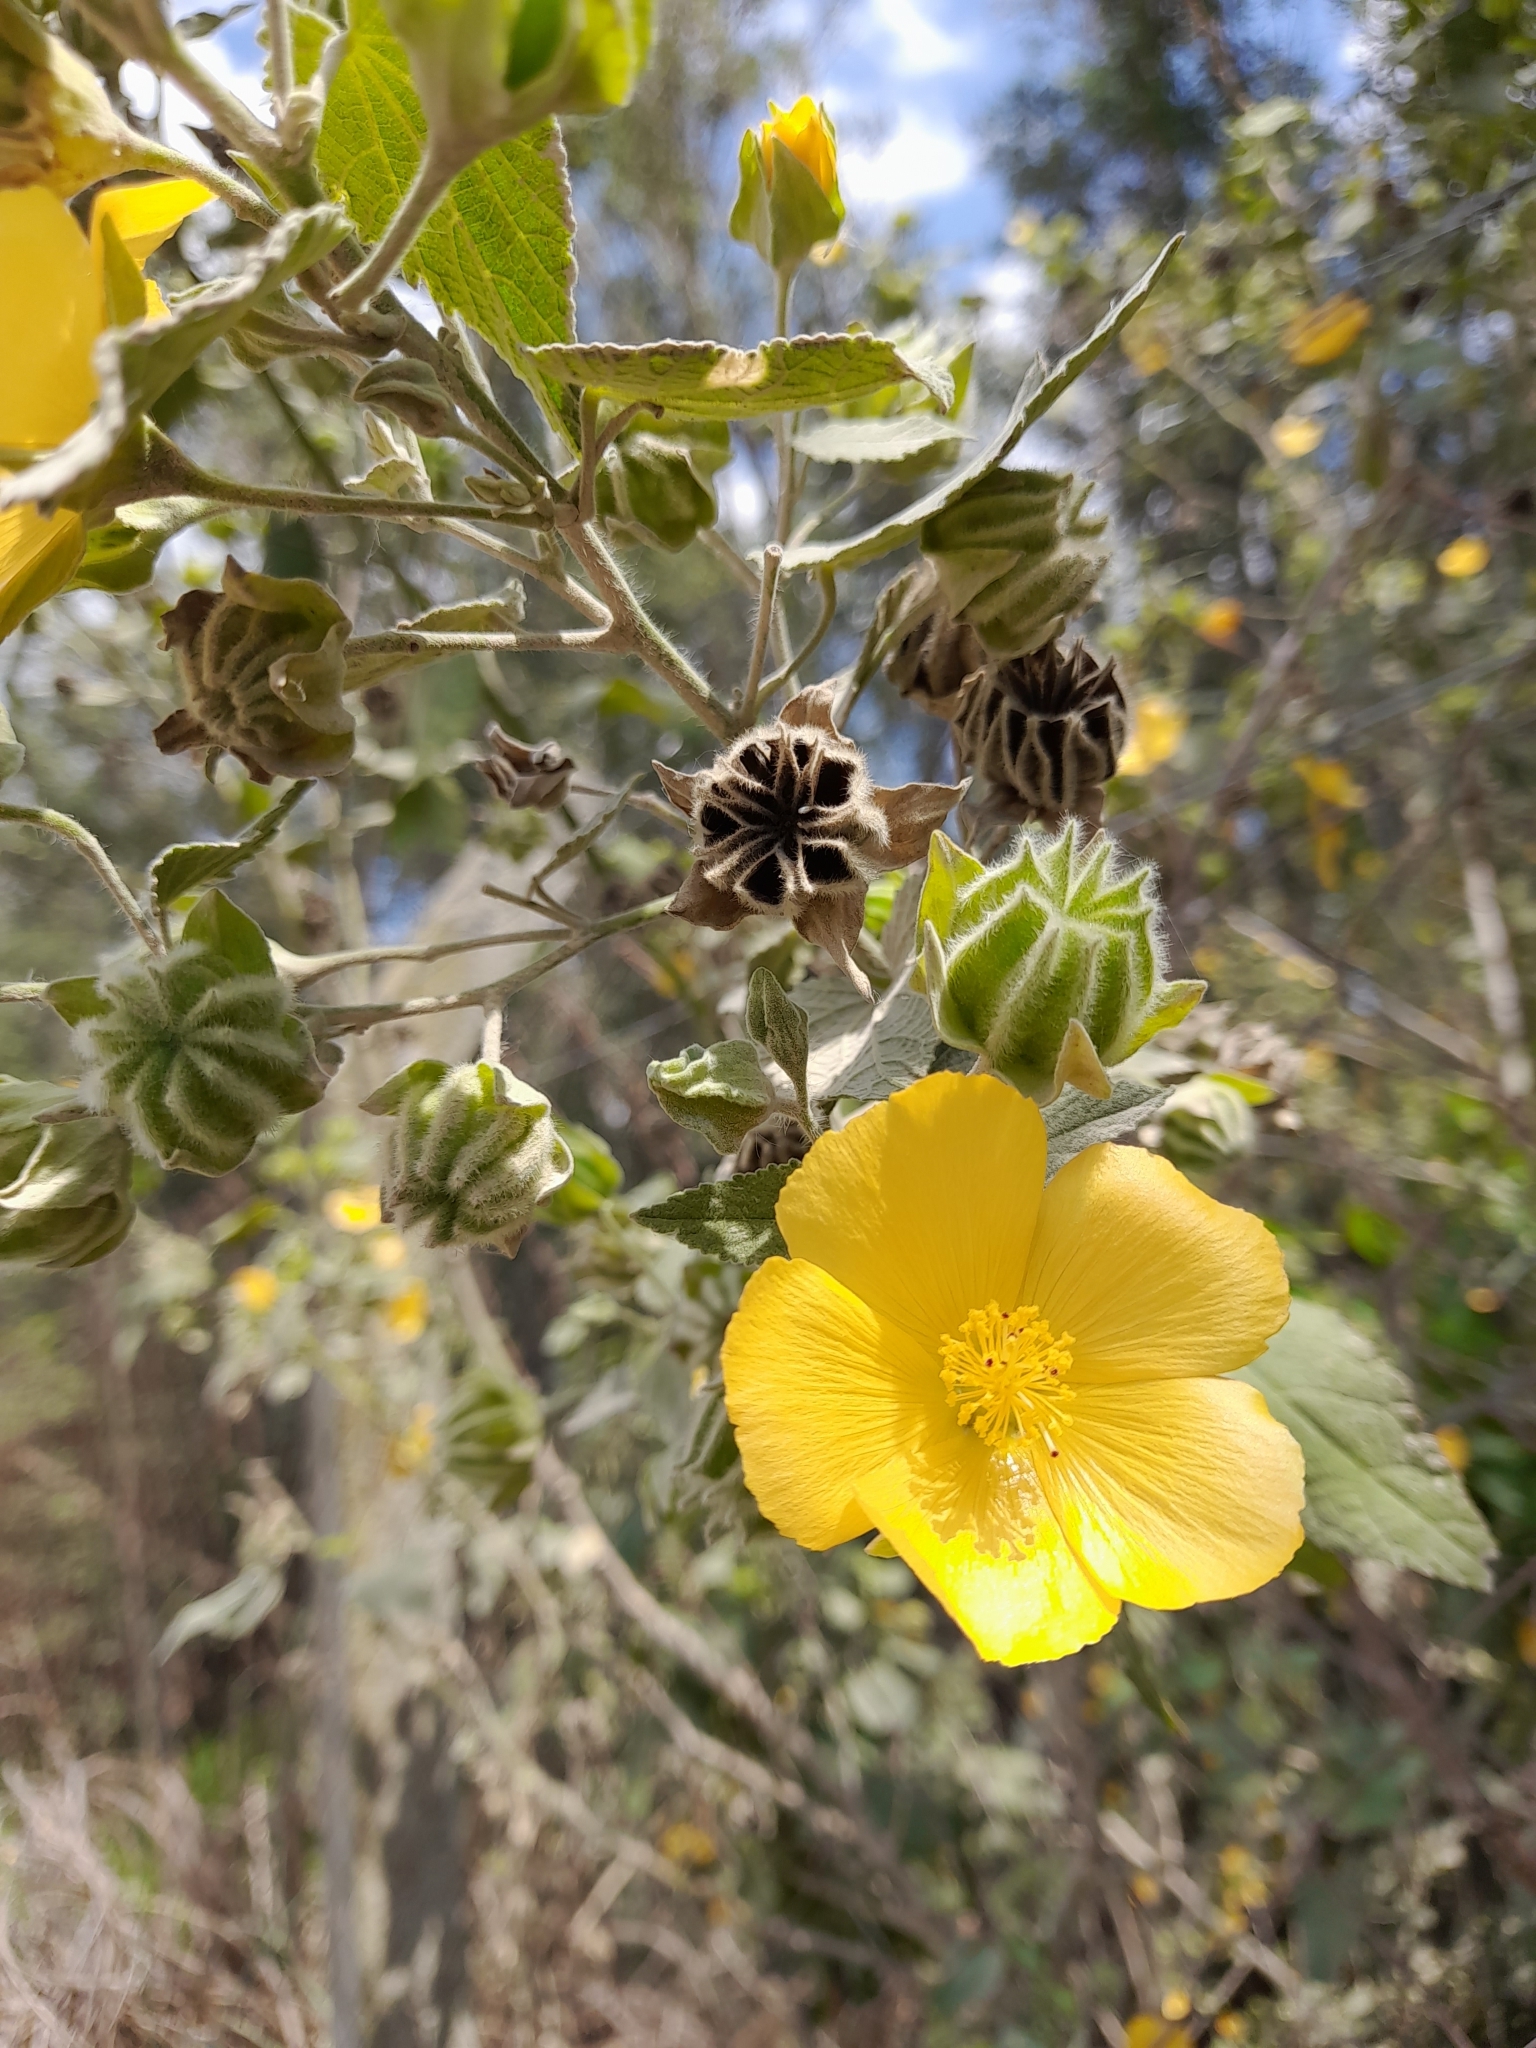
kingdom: Plantae
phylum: Tracheophyta
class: Magnoliopsida
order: Malvales
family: Malvaceae
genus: Abutilon
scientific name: Abutilon grandifolium
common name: Hairy abutilon
